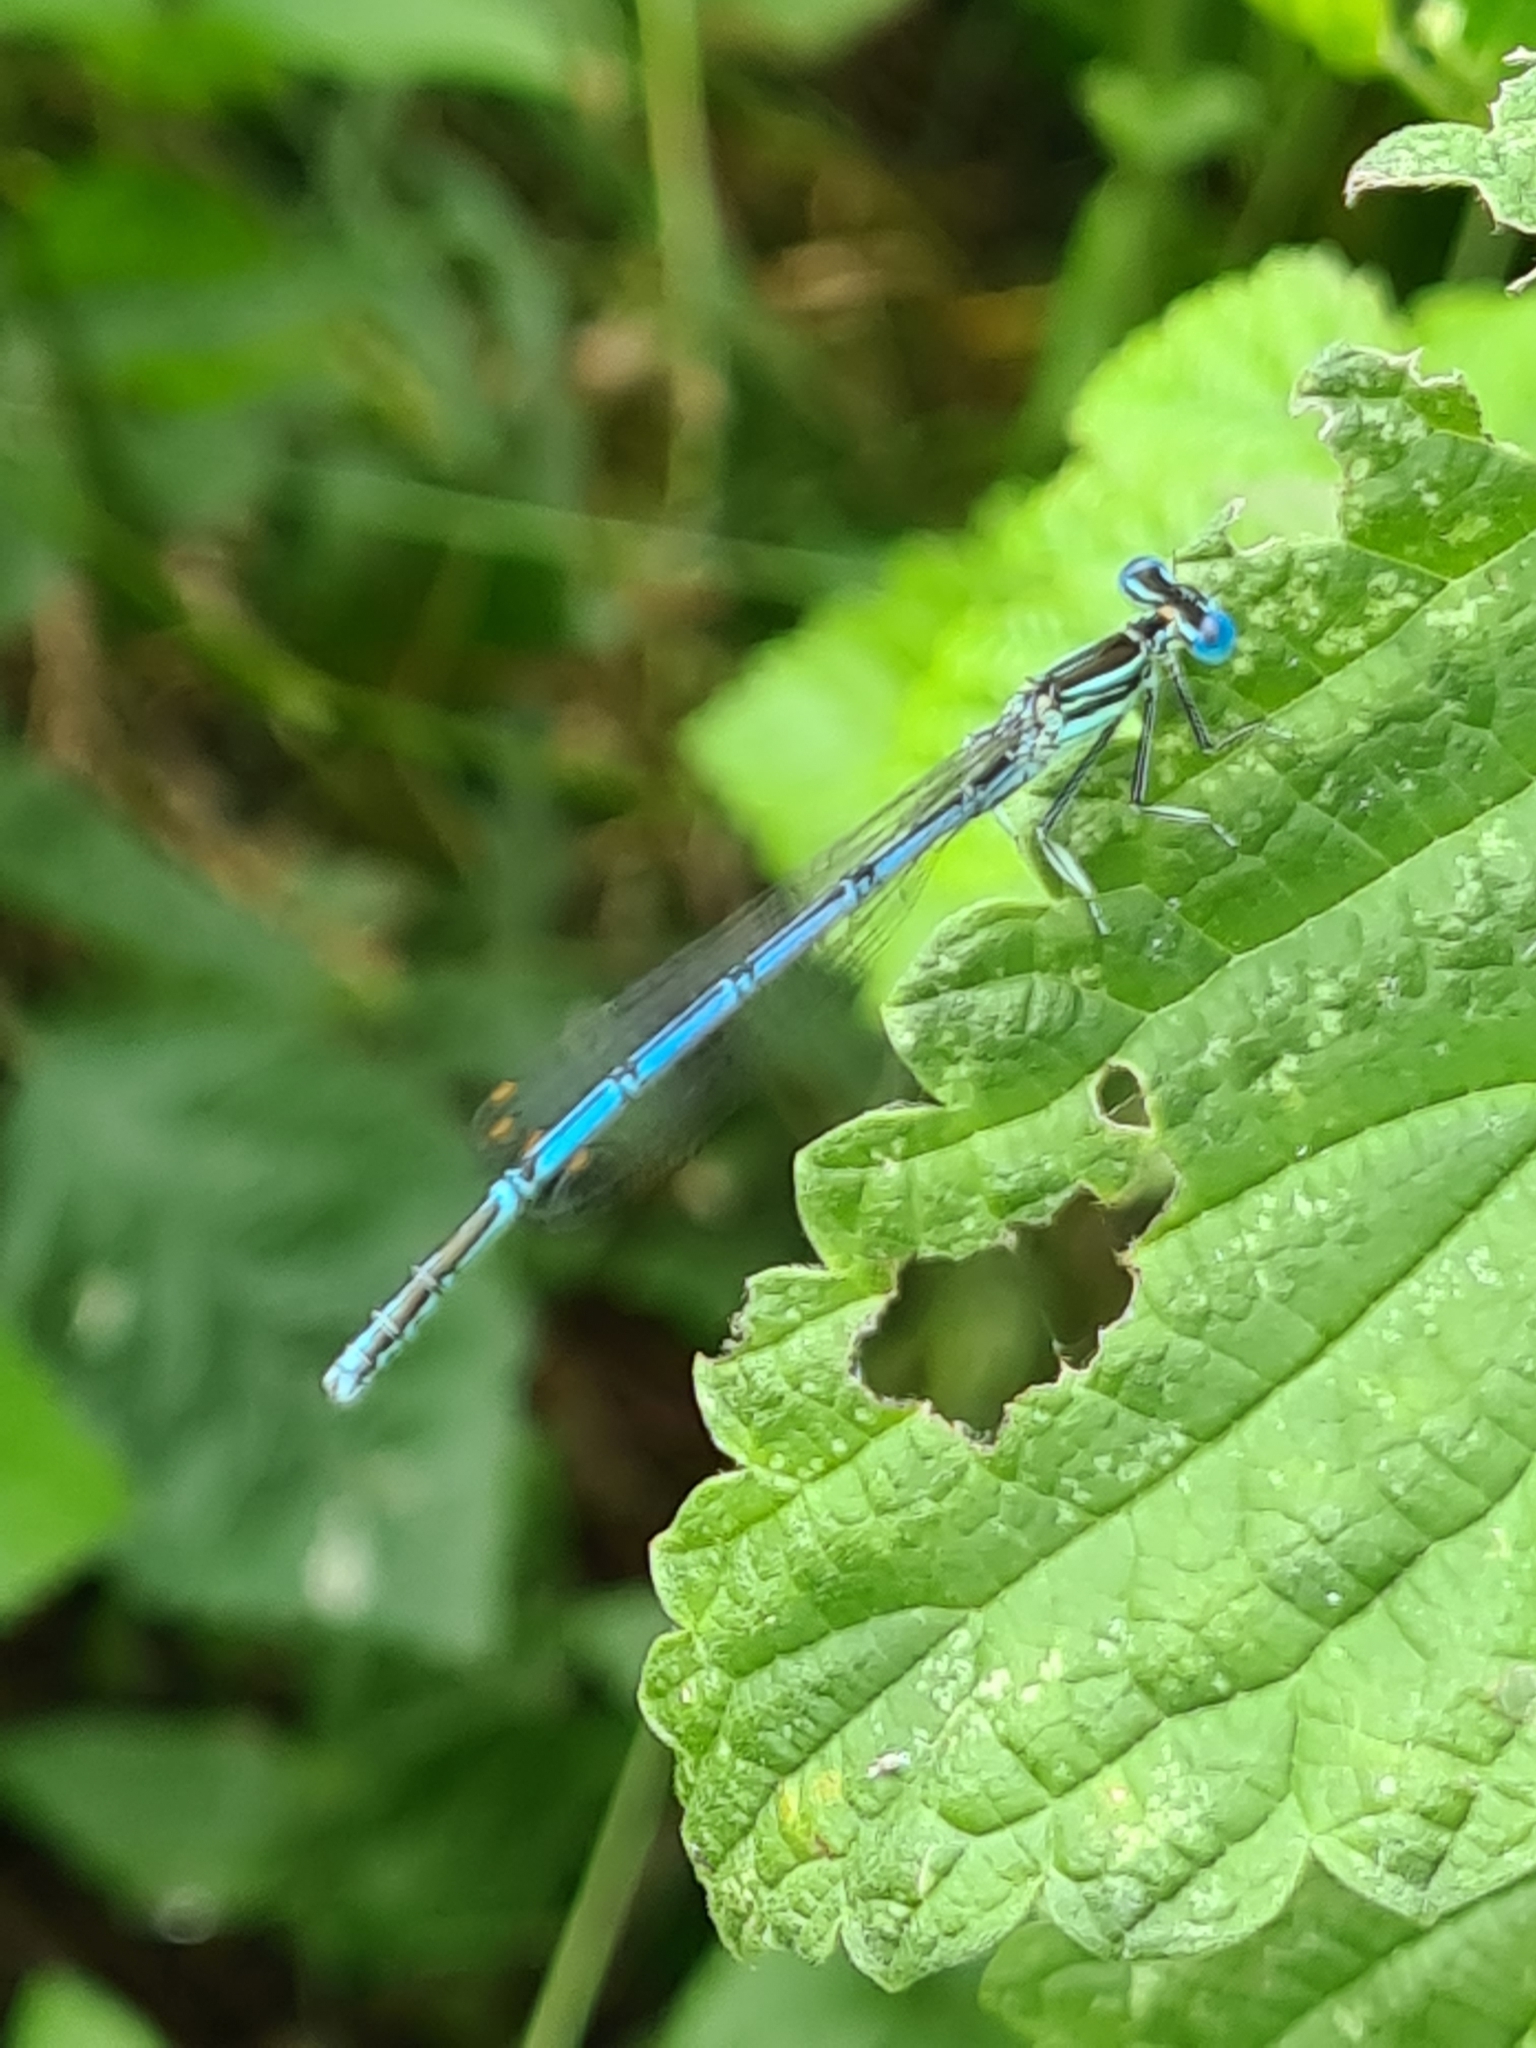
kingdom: Animalia
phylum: Arthropoda
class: Insecta
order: Odonata
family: Platycnemididae
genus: Platycnemis
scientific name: Platycnemis pennipes
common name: White-legged damselfly
